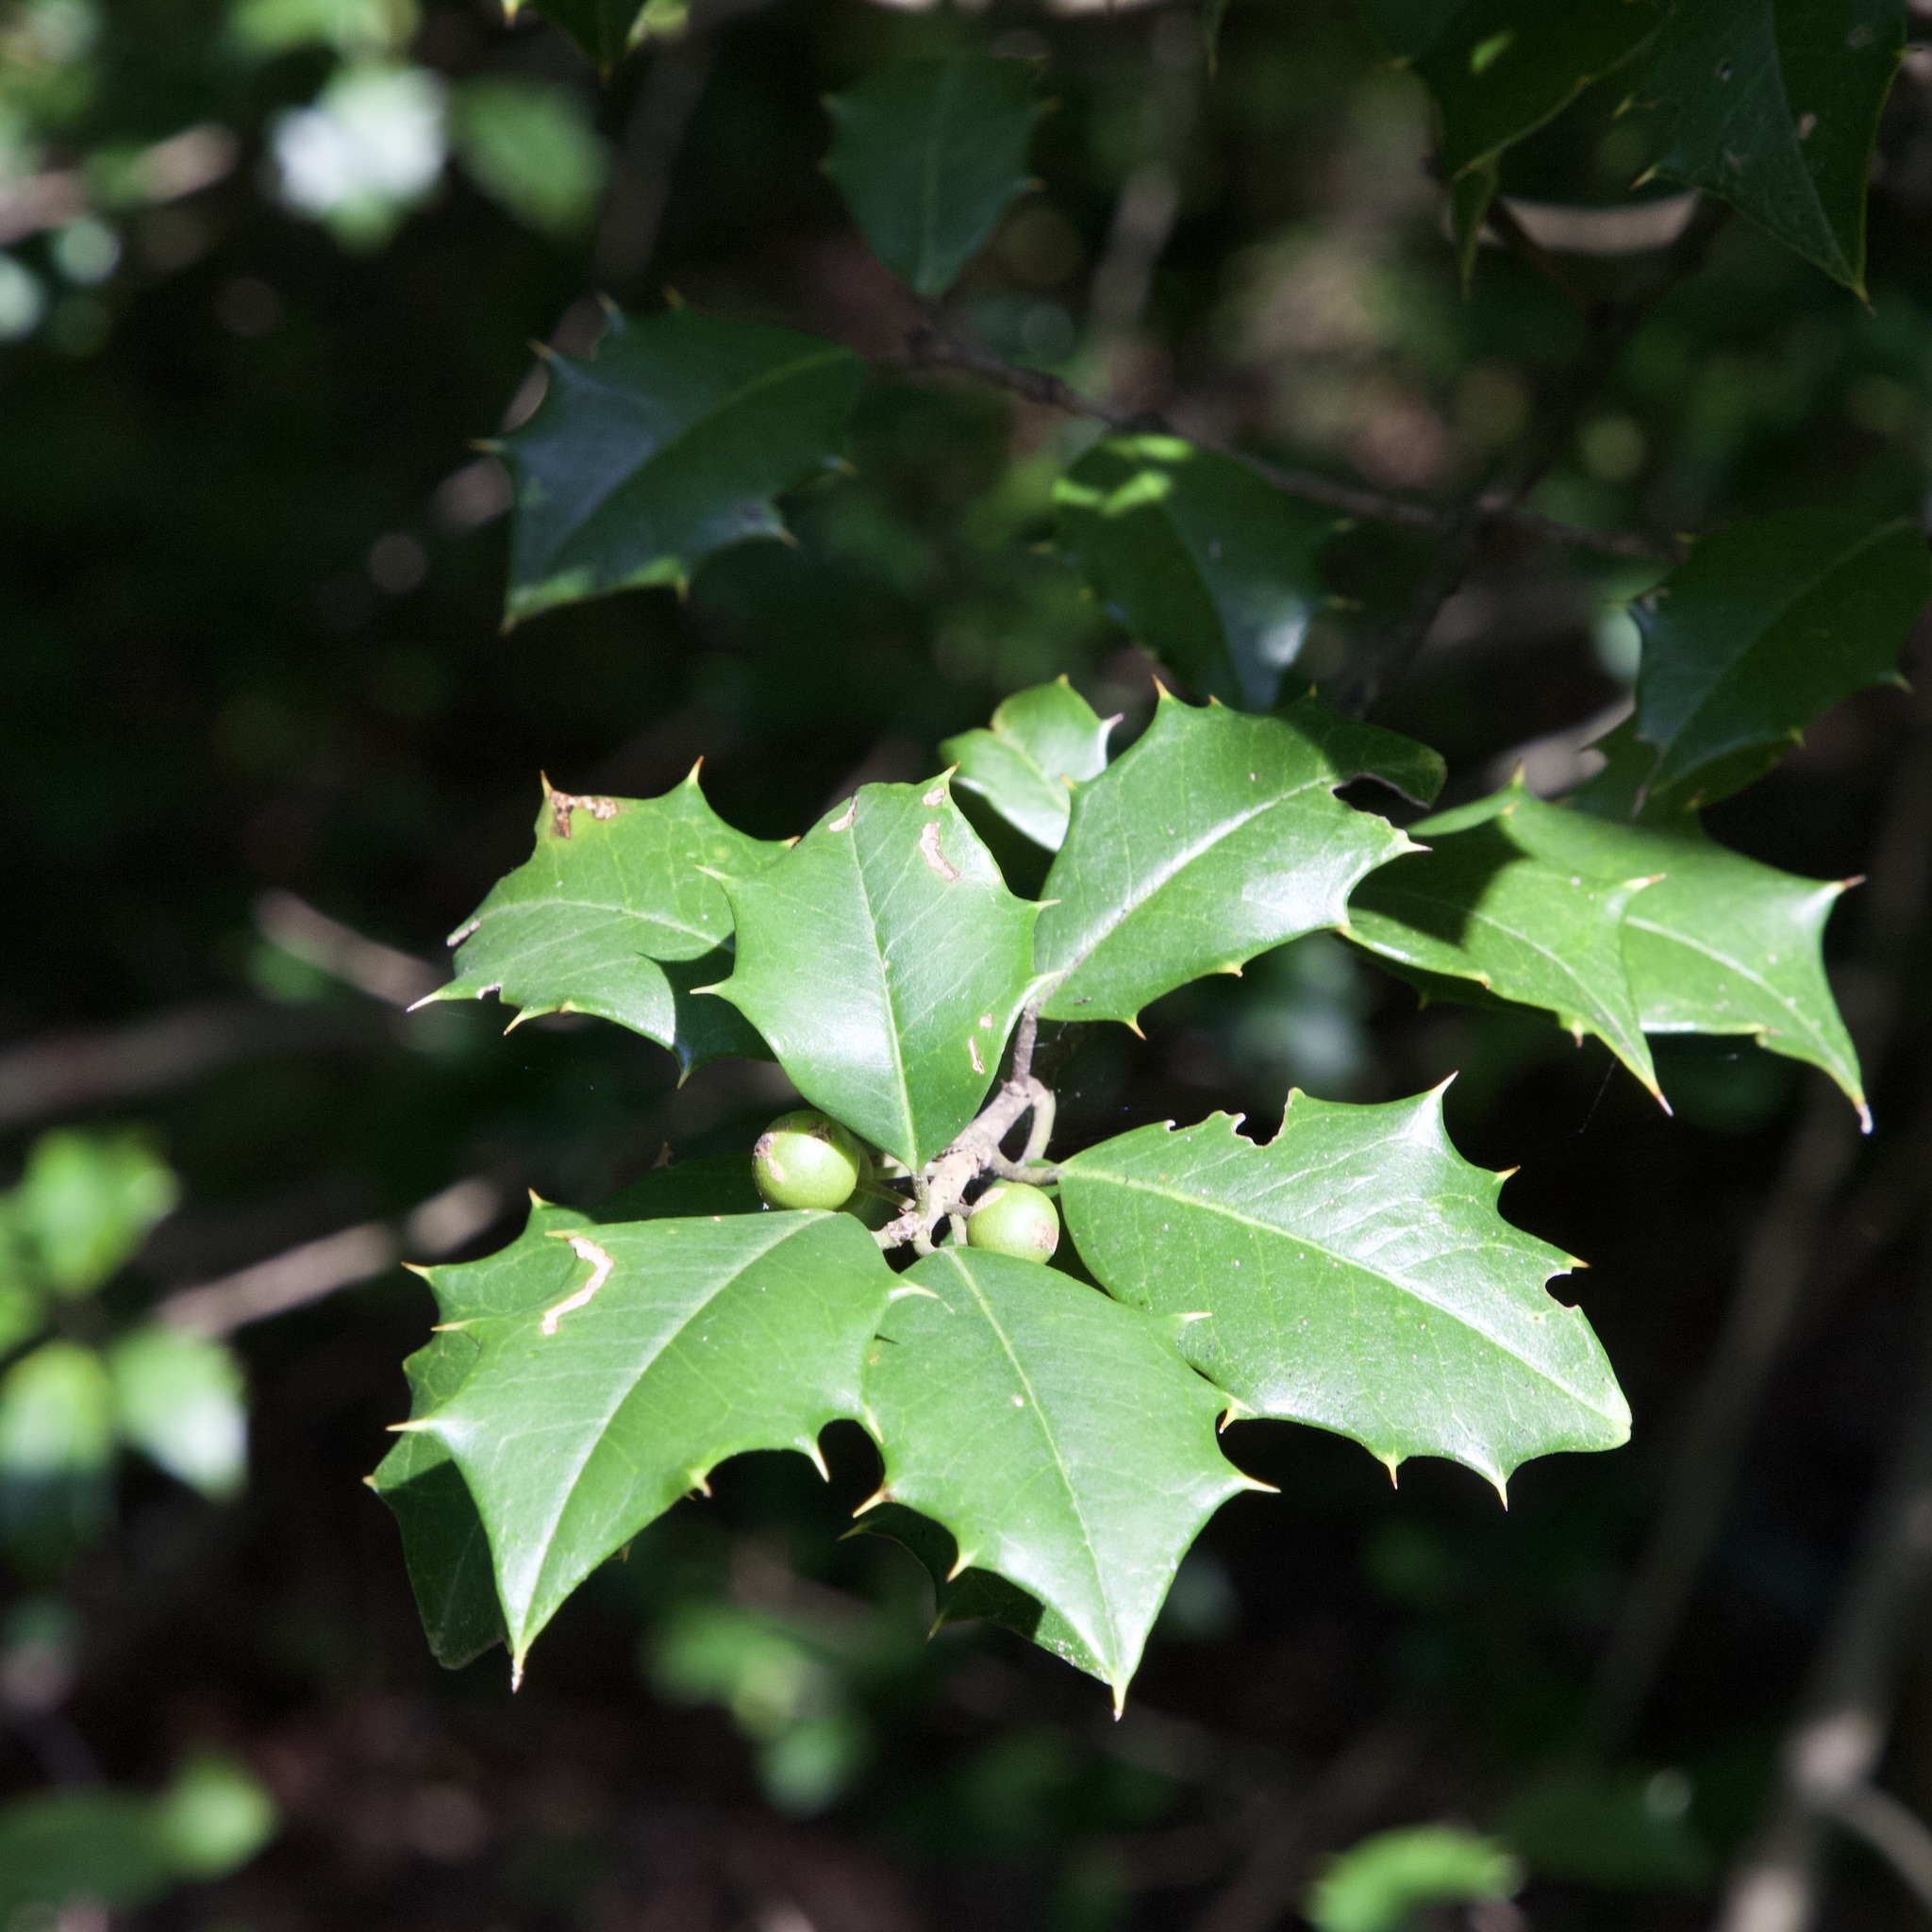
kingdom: Plantae
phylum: Tracheophyta
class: Magnoliopsida
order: Aquifoliales
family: Aquifoliaceae
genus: Ilex
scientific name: Ilex opaca
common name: American holly
